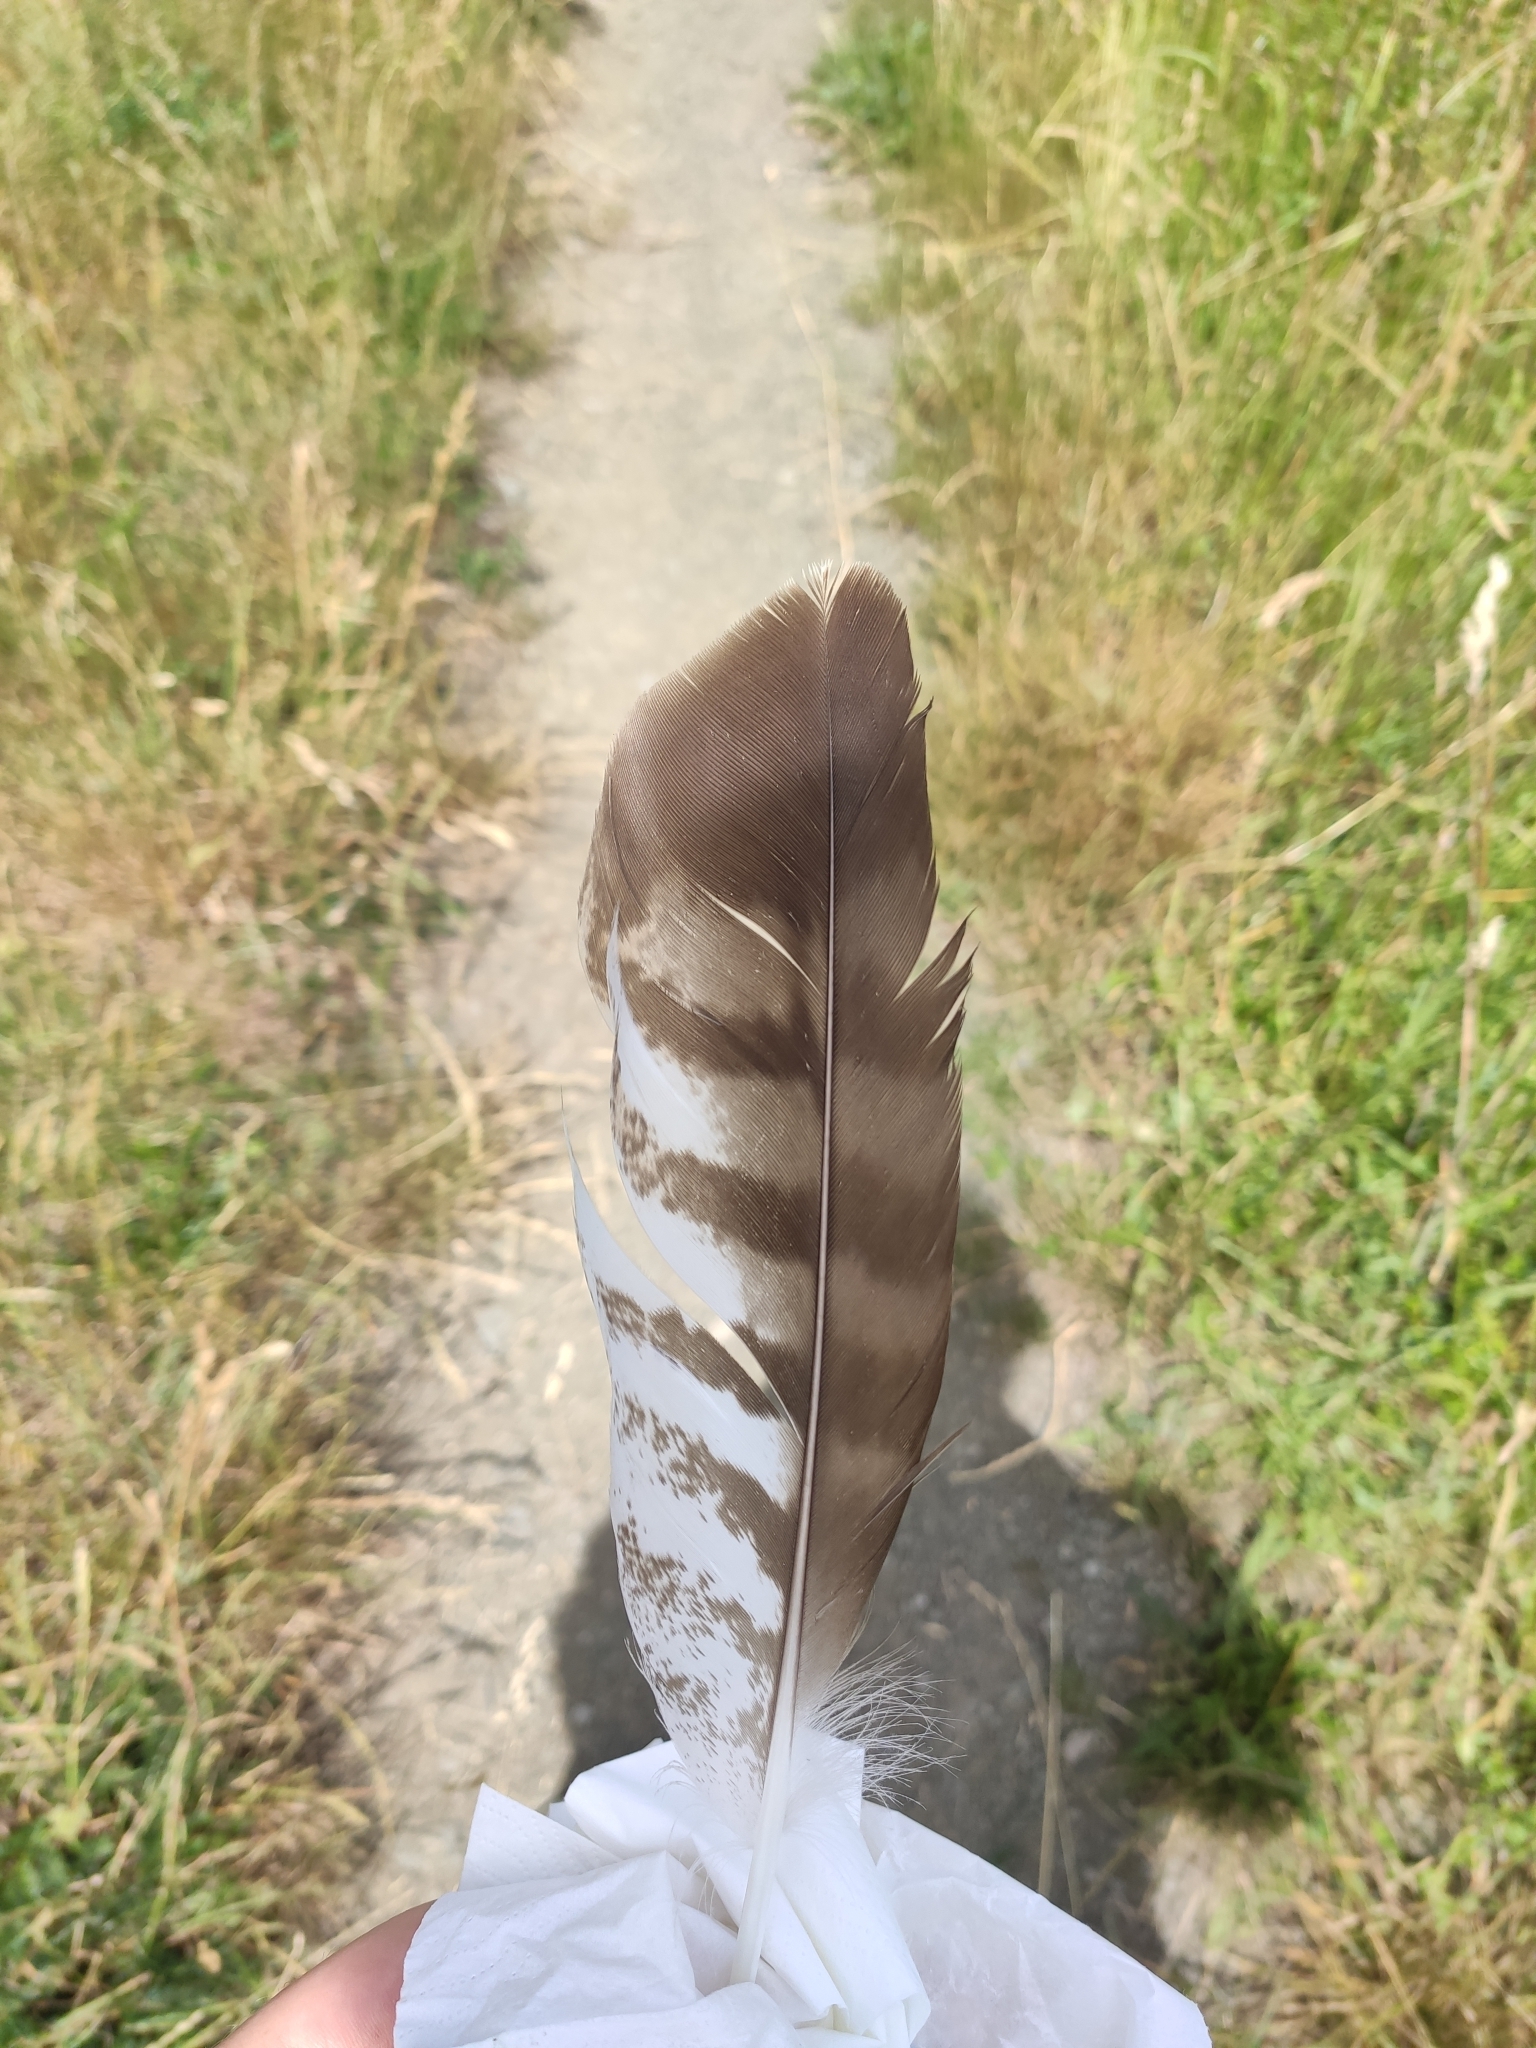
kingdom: Animalia
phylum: Chordata
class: Aves
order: Accipitriformes
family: Accipitridae
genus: Buteo
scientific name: Buteo buteo
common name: Common buzzard
